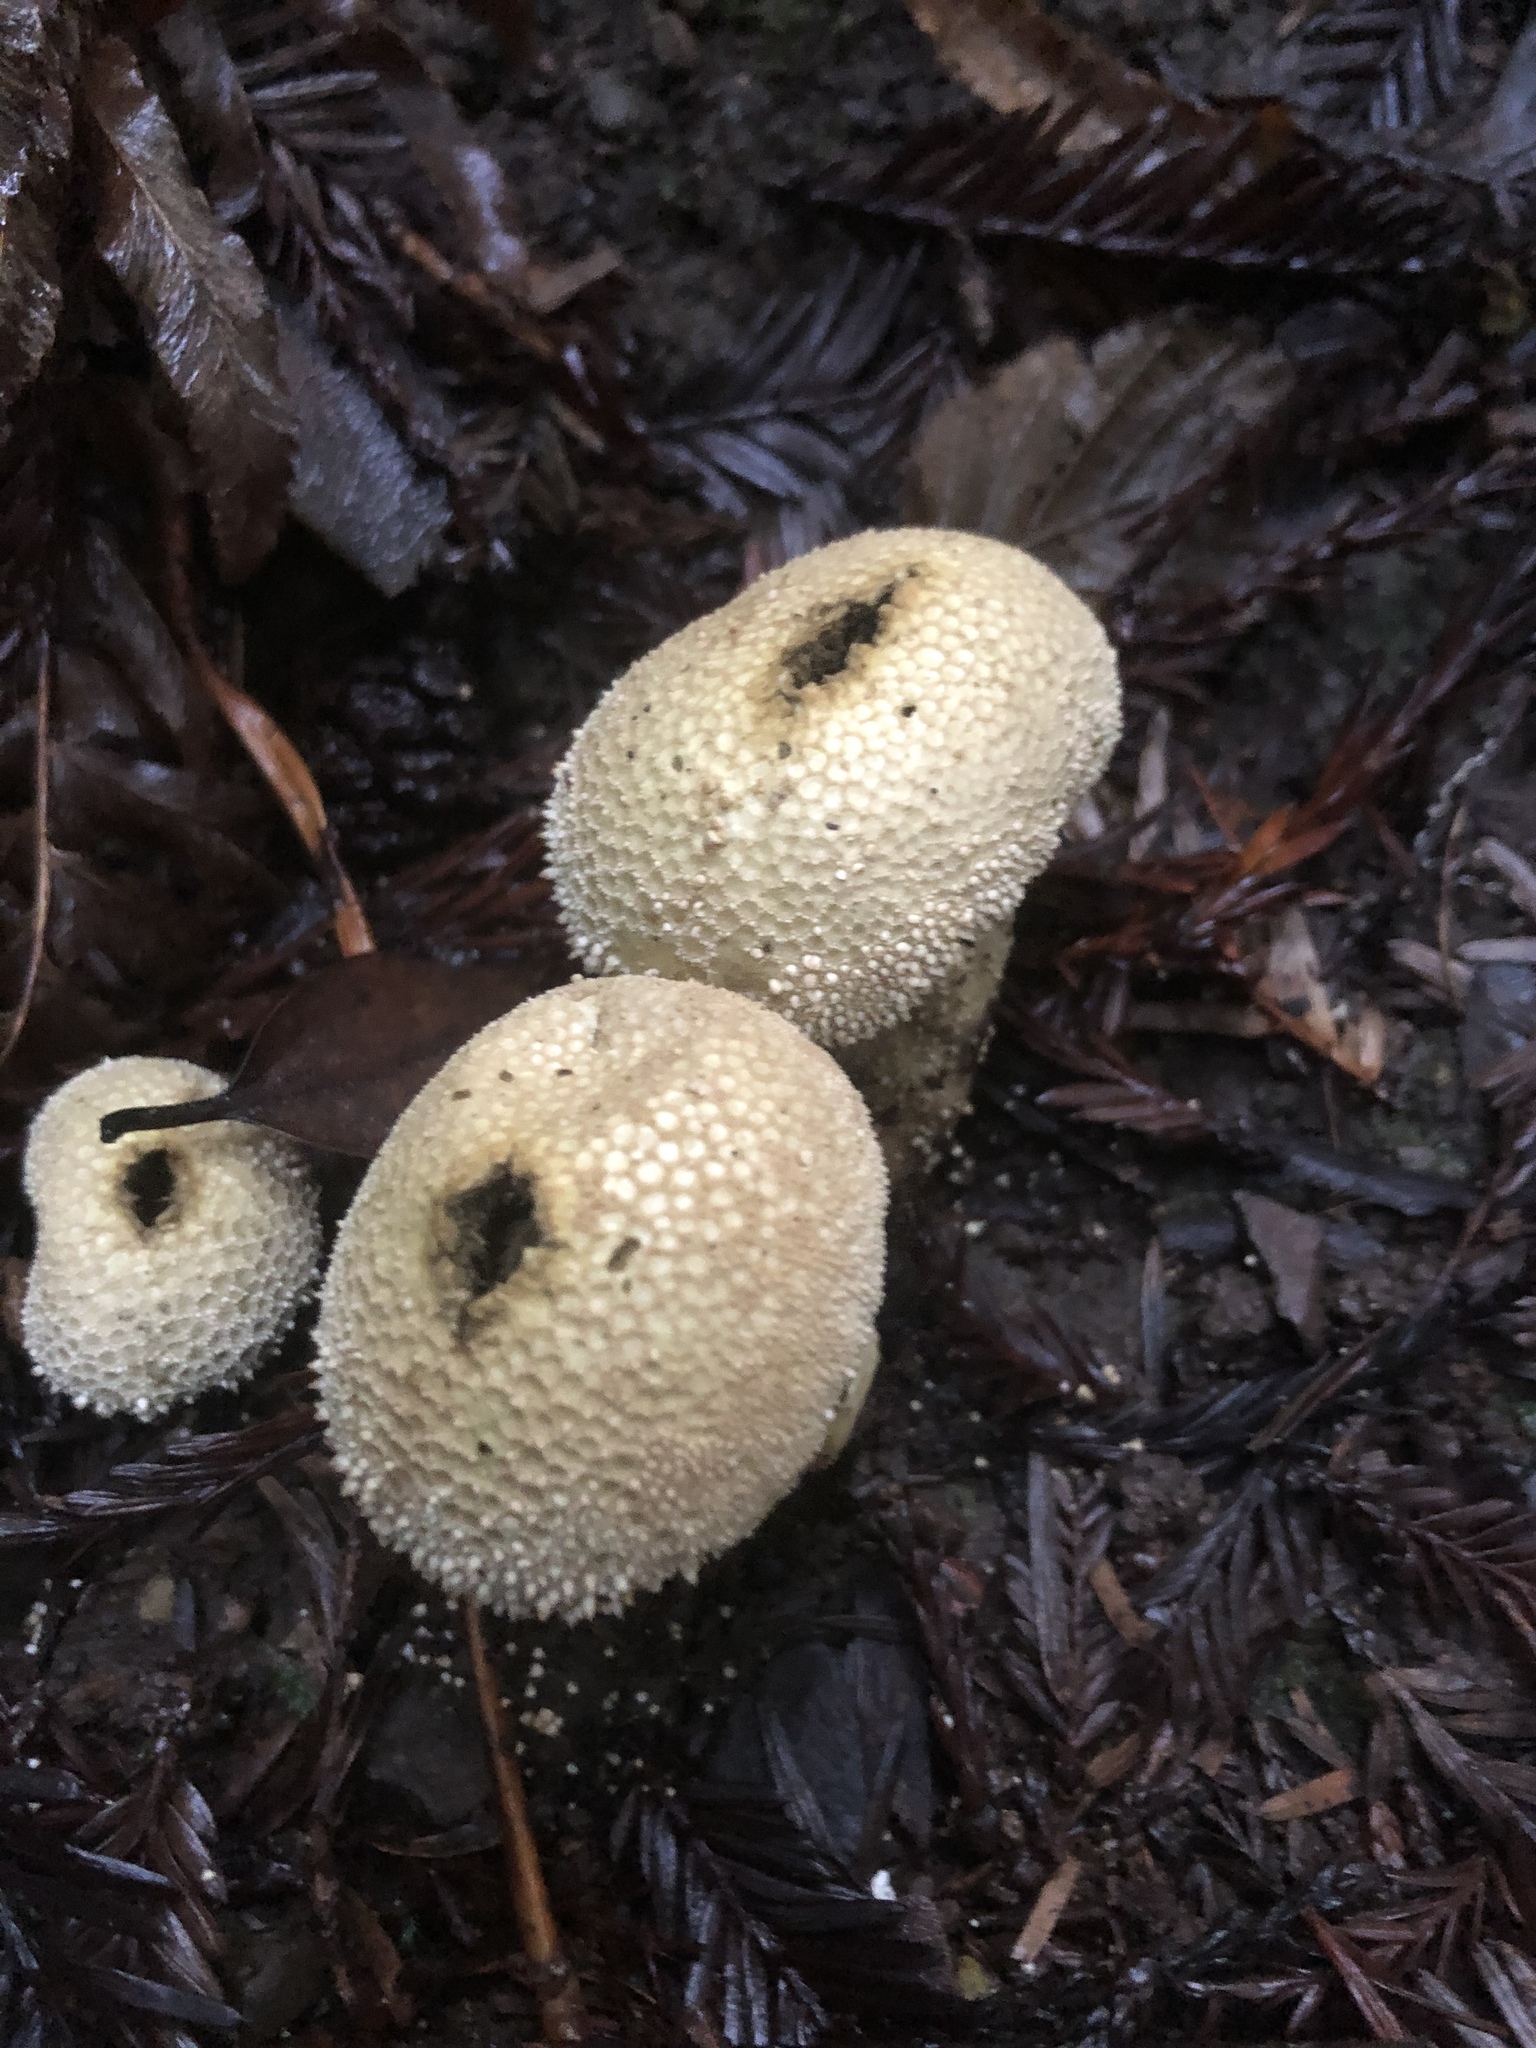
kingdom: Fungi
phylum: Basidiomycota
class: Agaricomycetes
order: Agaricales
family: Lycoperdaceae
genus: Lycoperdon
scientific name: Lycoperdon perlatum
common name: Common puffball
